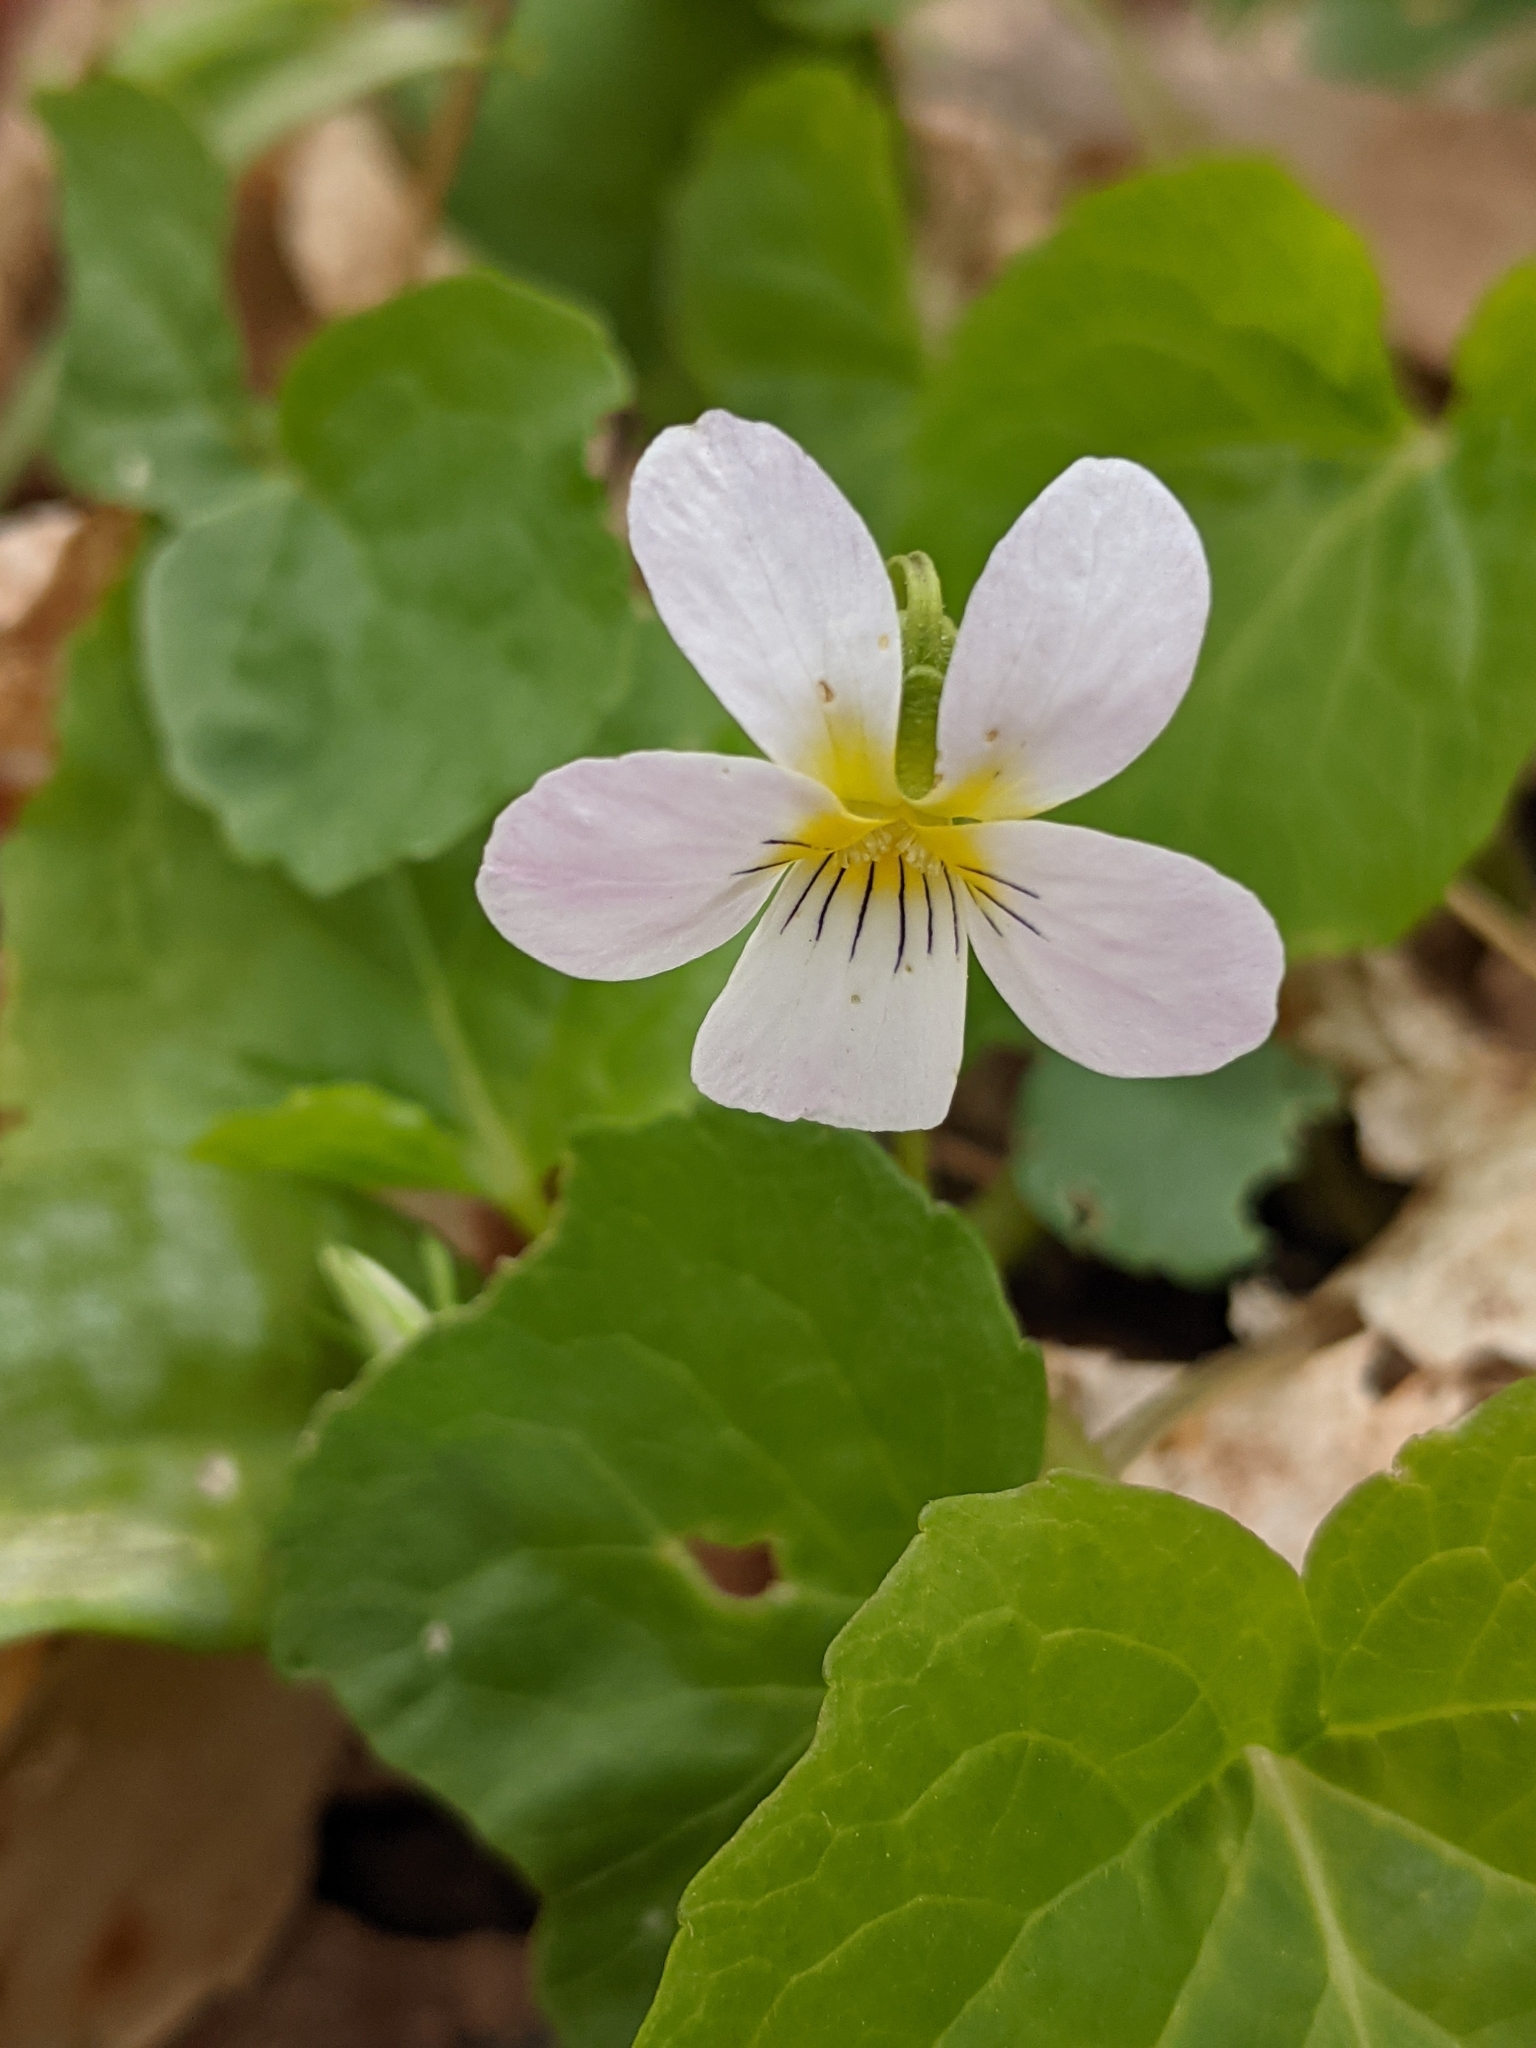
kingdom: Plantae
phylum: Tracheophyta
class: Magnoliopsida
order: Malpighiales
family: Violaceae
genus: Viola
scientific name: Viola canadensis
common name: Canada violet
